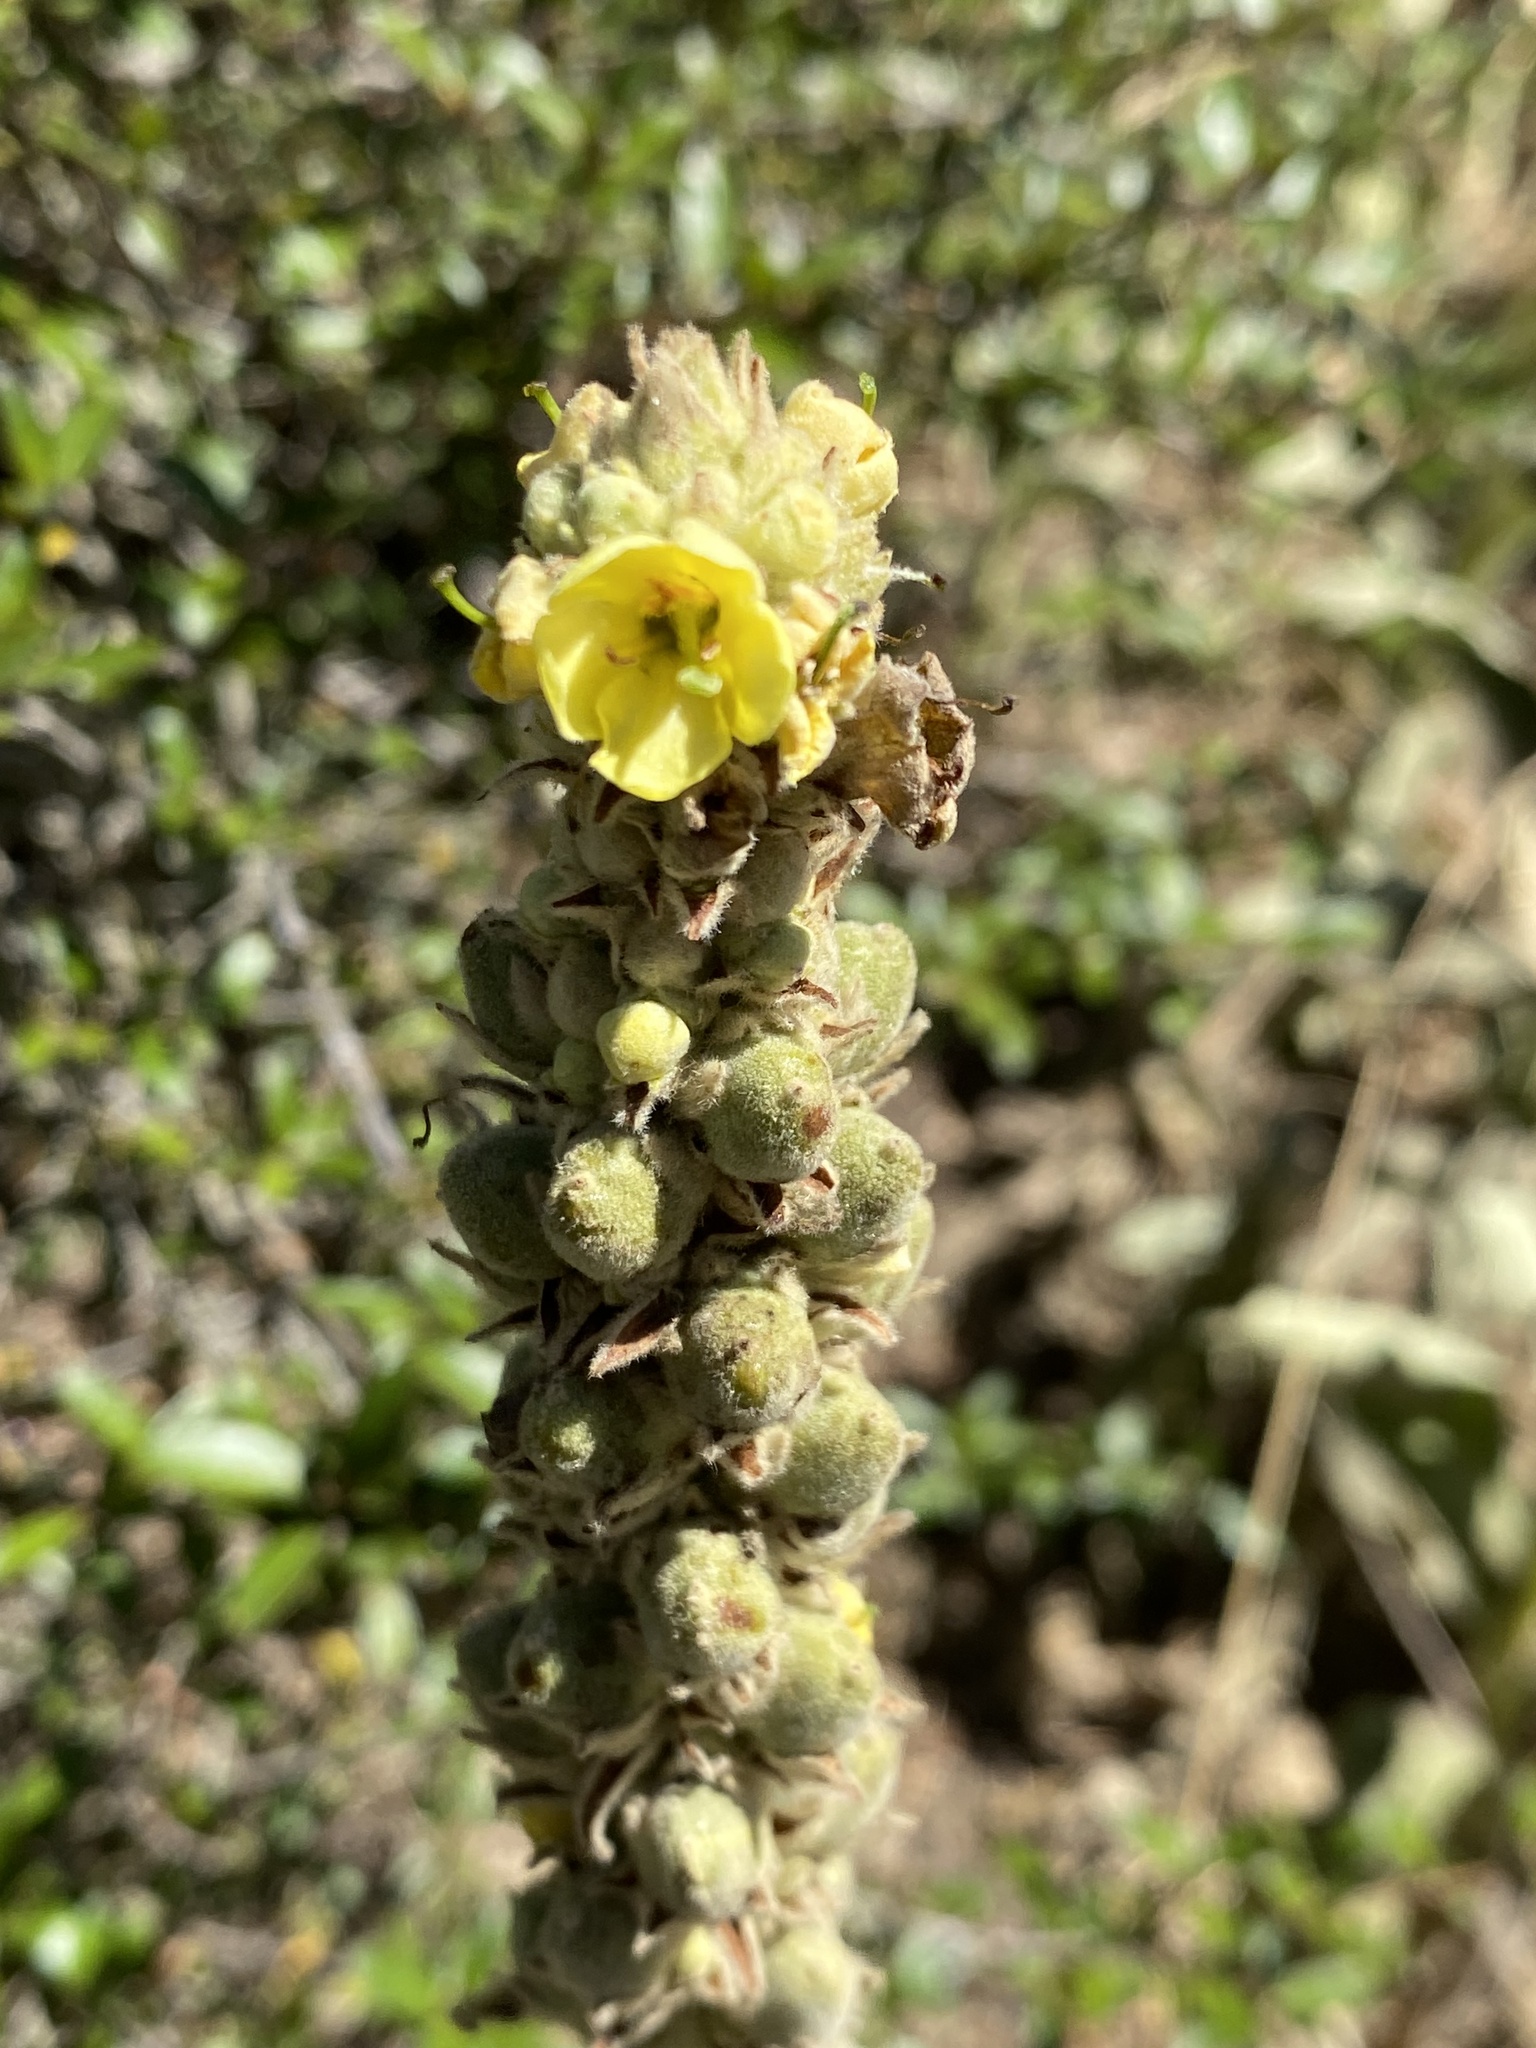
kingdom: Plantae
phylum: Tracheophyta
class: Magnoliopsida
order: Lamiales
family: Scrophulariaceae
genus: Verbascum
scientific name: Verbascum thapsus
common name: Common mullein
